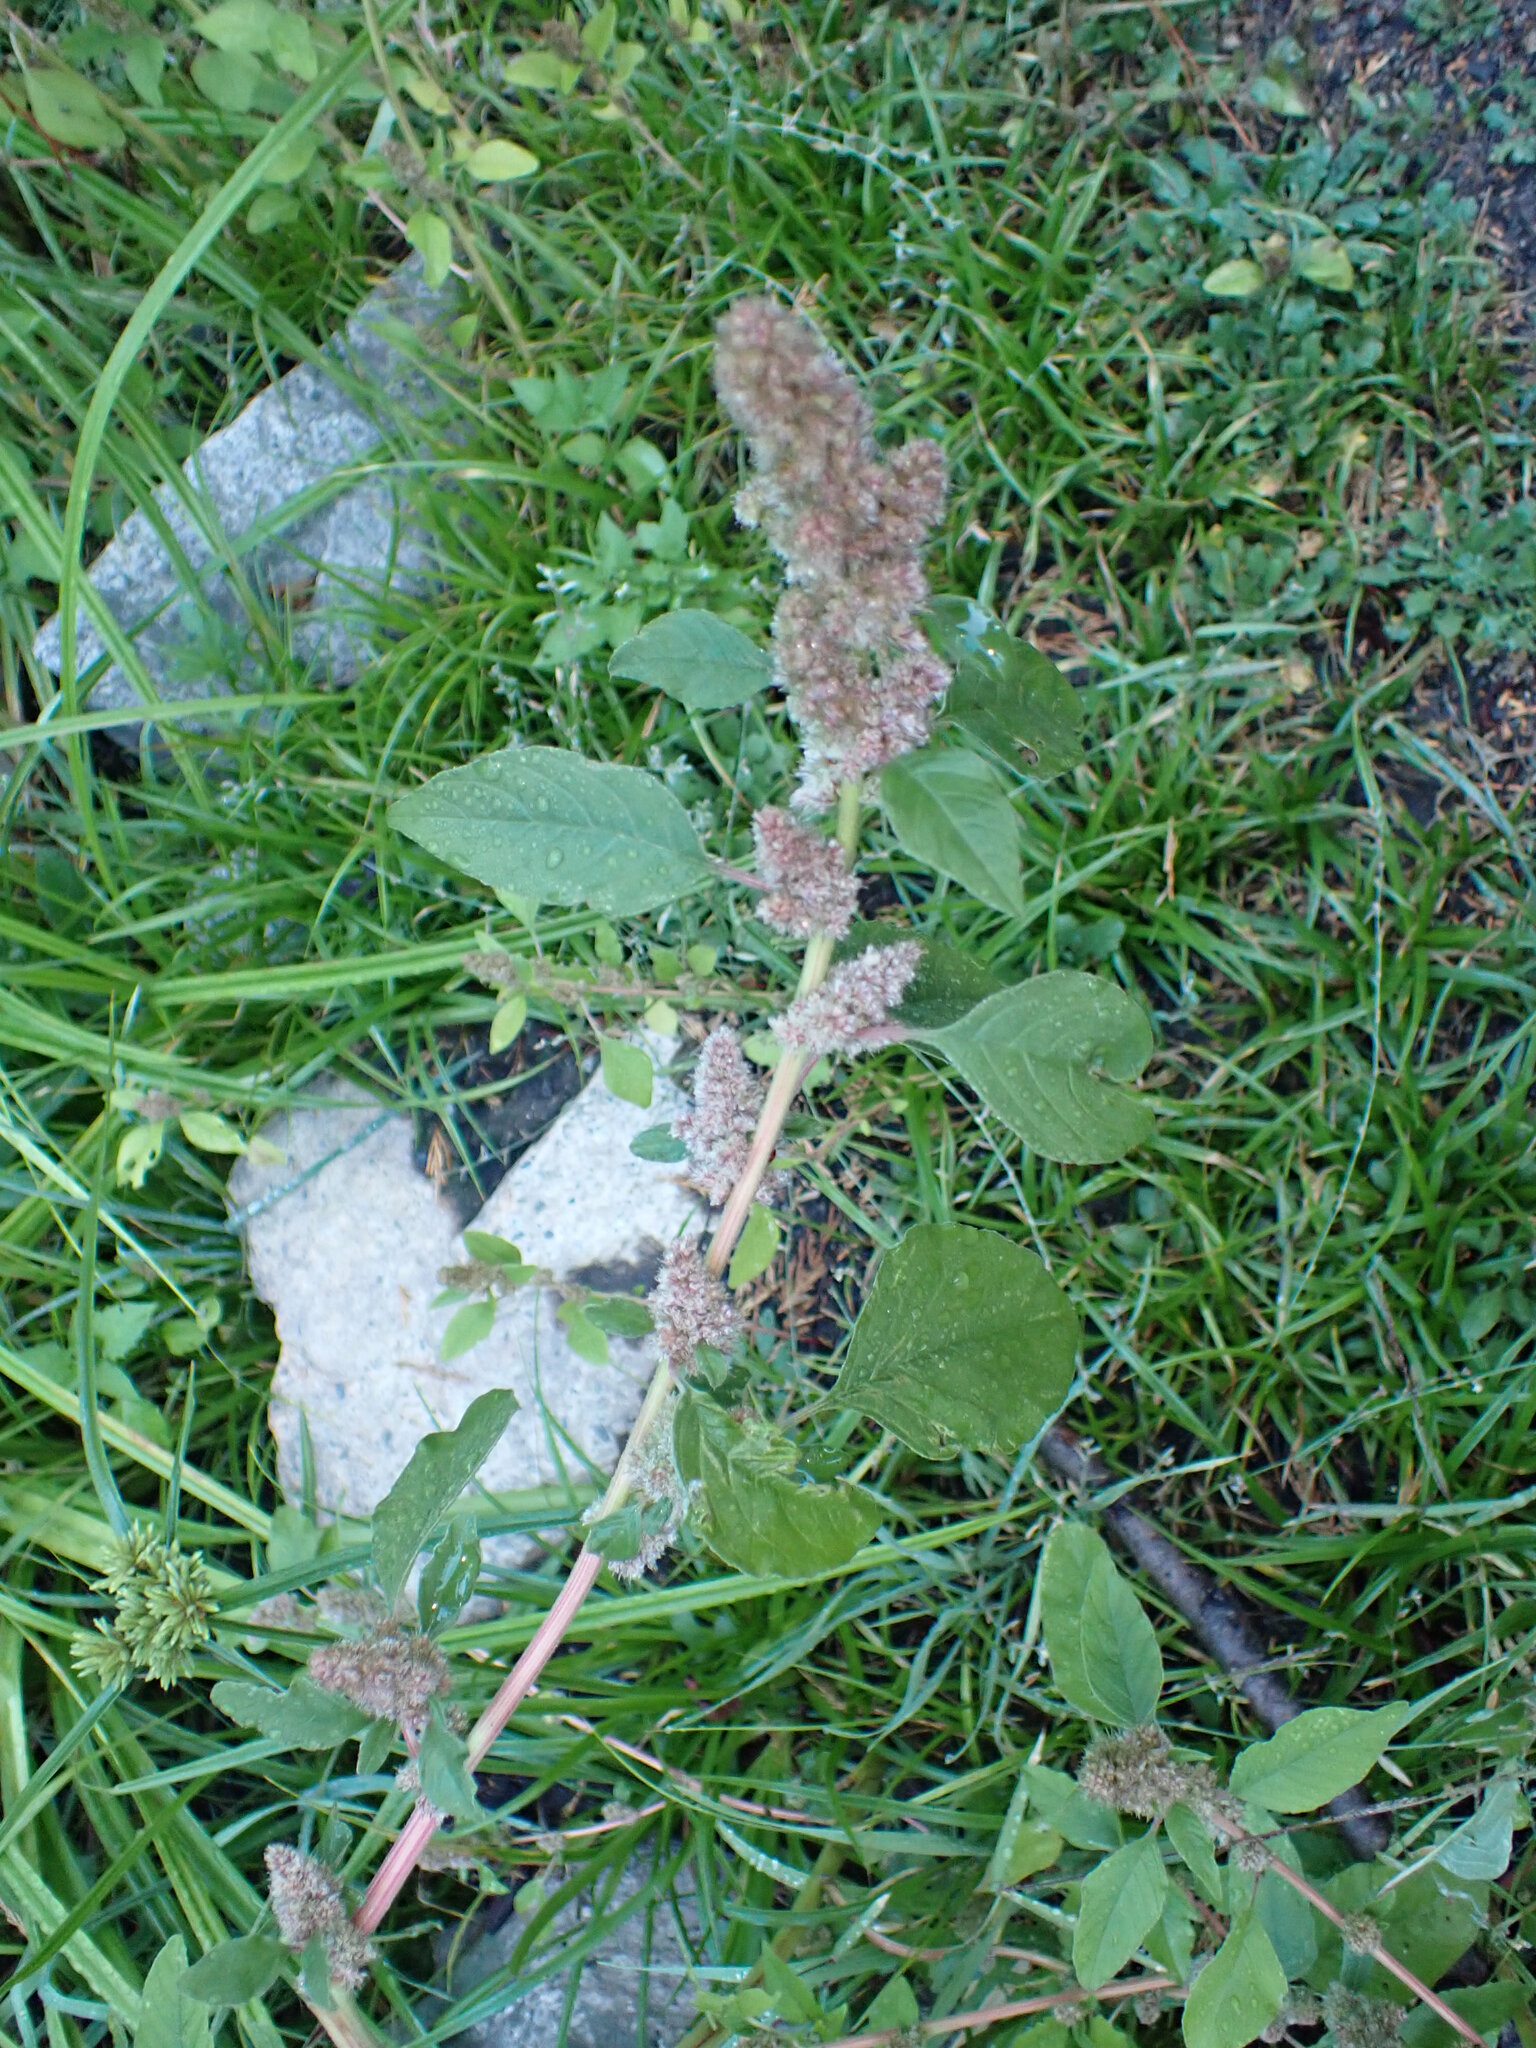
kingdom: Plantae
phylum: Tracheophyta
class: Magnoliopsida
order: Caryophyllales
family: Amaranthaceae
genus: Amaranthus
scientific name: Amaranthus retroflexus
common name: Redroot amaranth
